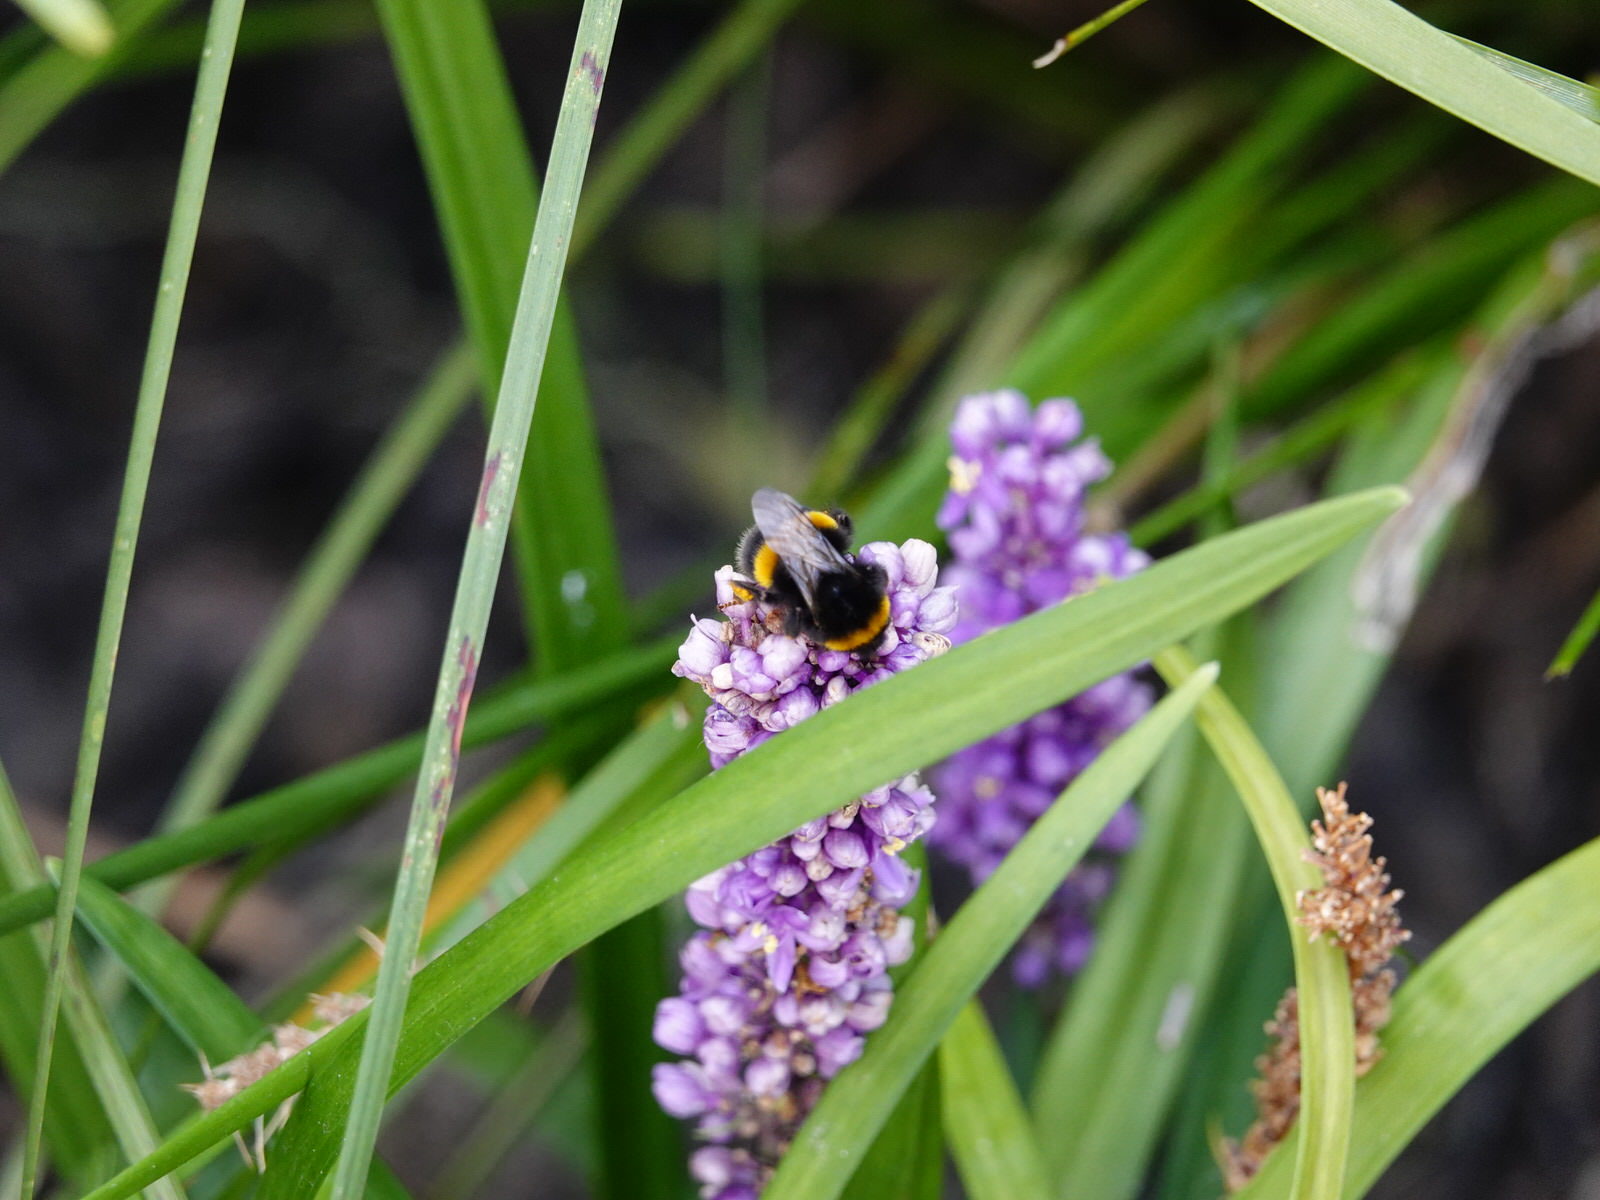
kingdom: Animalia
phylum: Arthropoda
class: Insecta
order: Hymenoptera
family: Apidae
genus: Bombus
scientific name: Bombus terrestris
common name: Buff-tailed bumblebee
